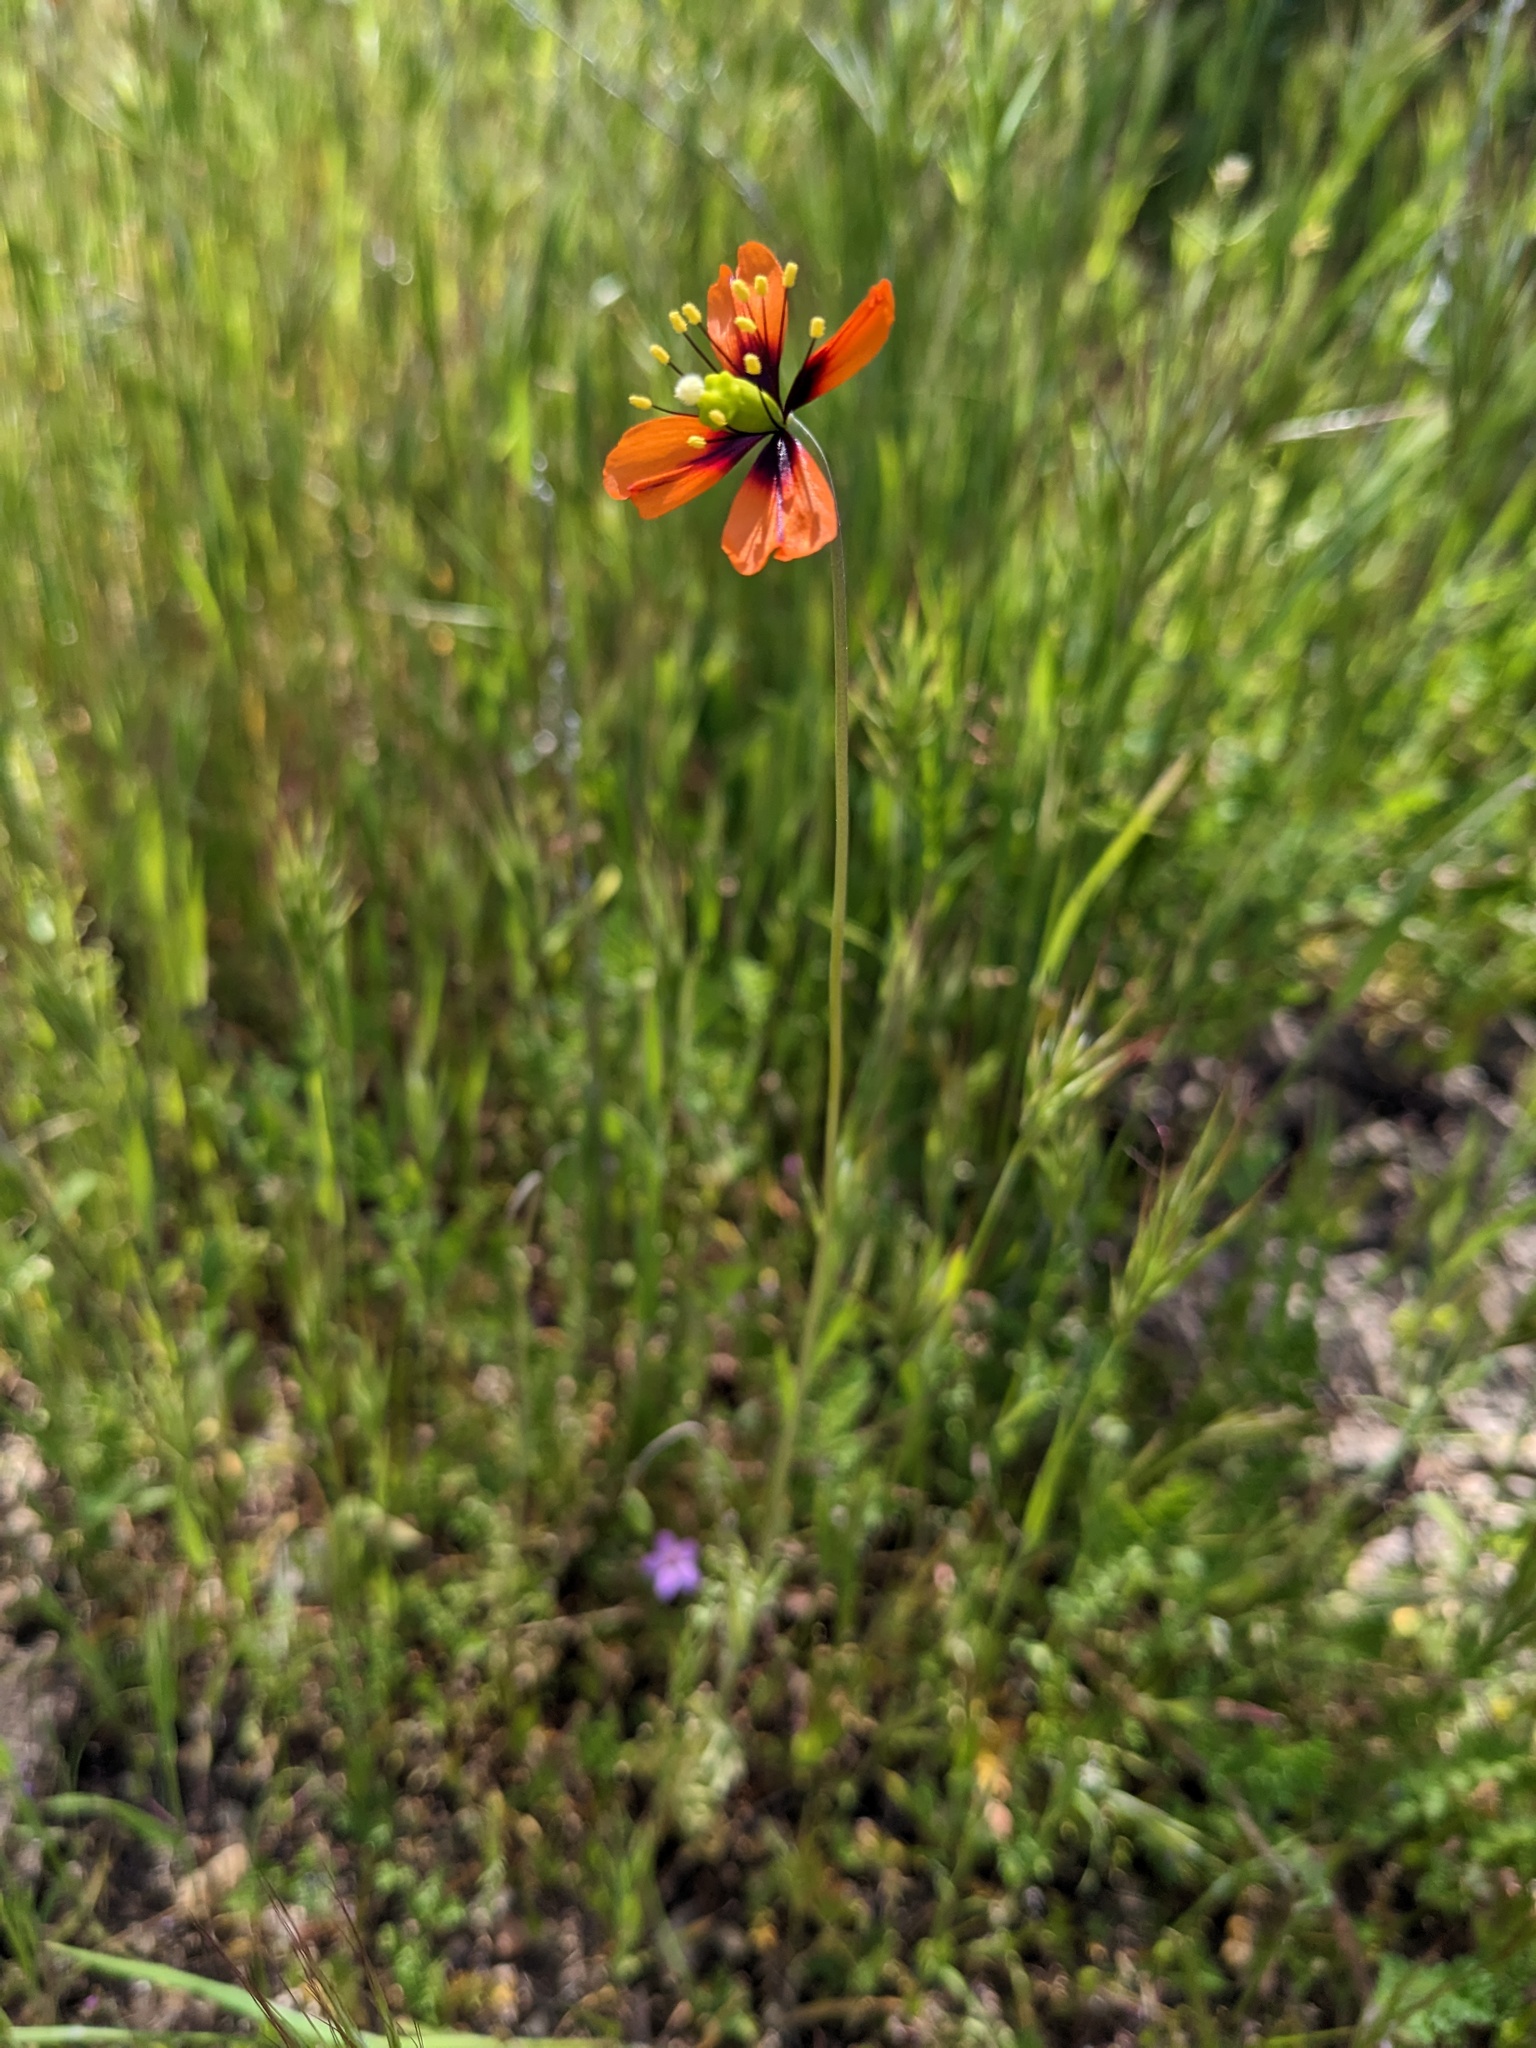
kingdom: Plantae
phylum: Tracheophyta
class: Magnoliopsida
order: Ranunculales
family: Papaveraceae
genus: Stylomecon
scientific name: Stylomecon heterophylla
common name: Flaming-poppy
